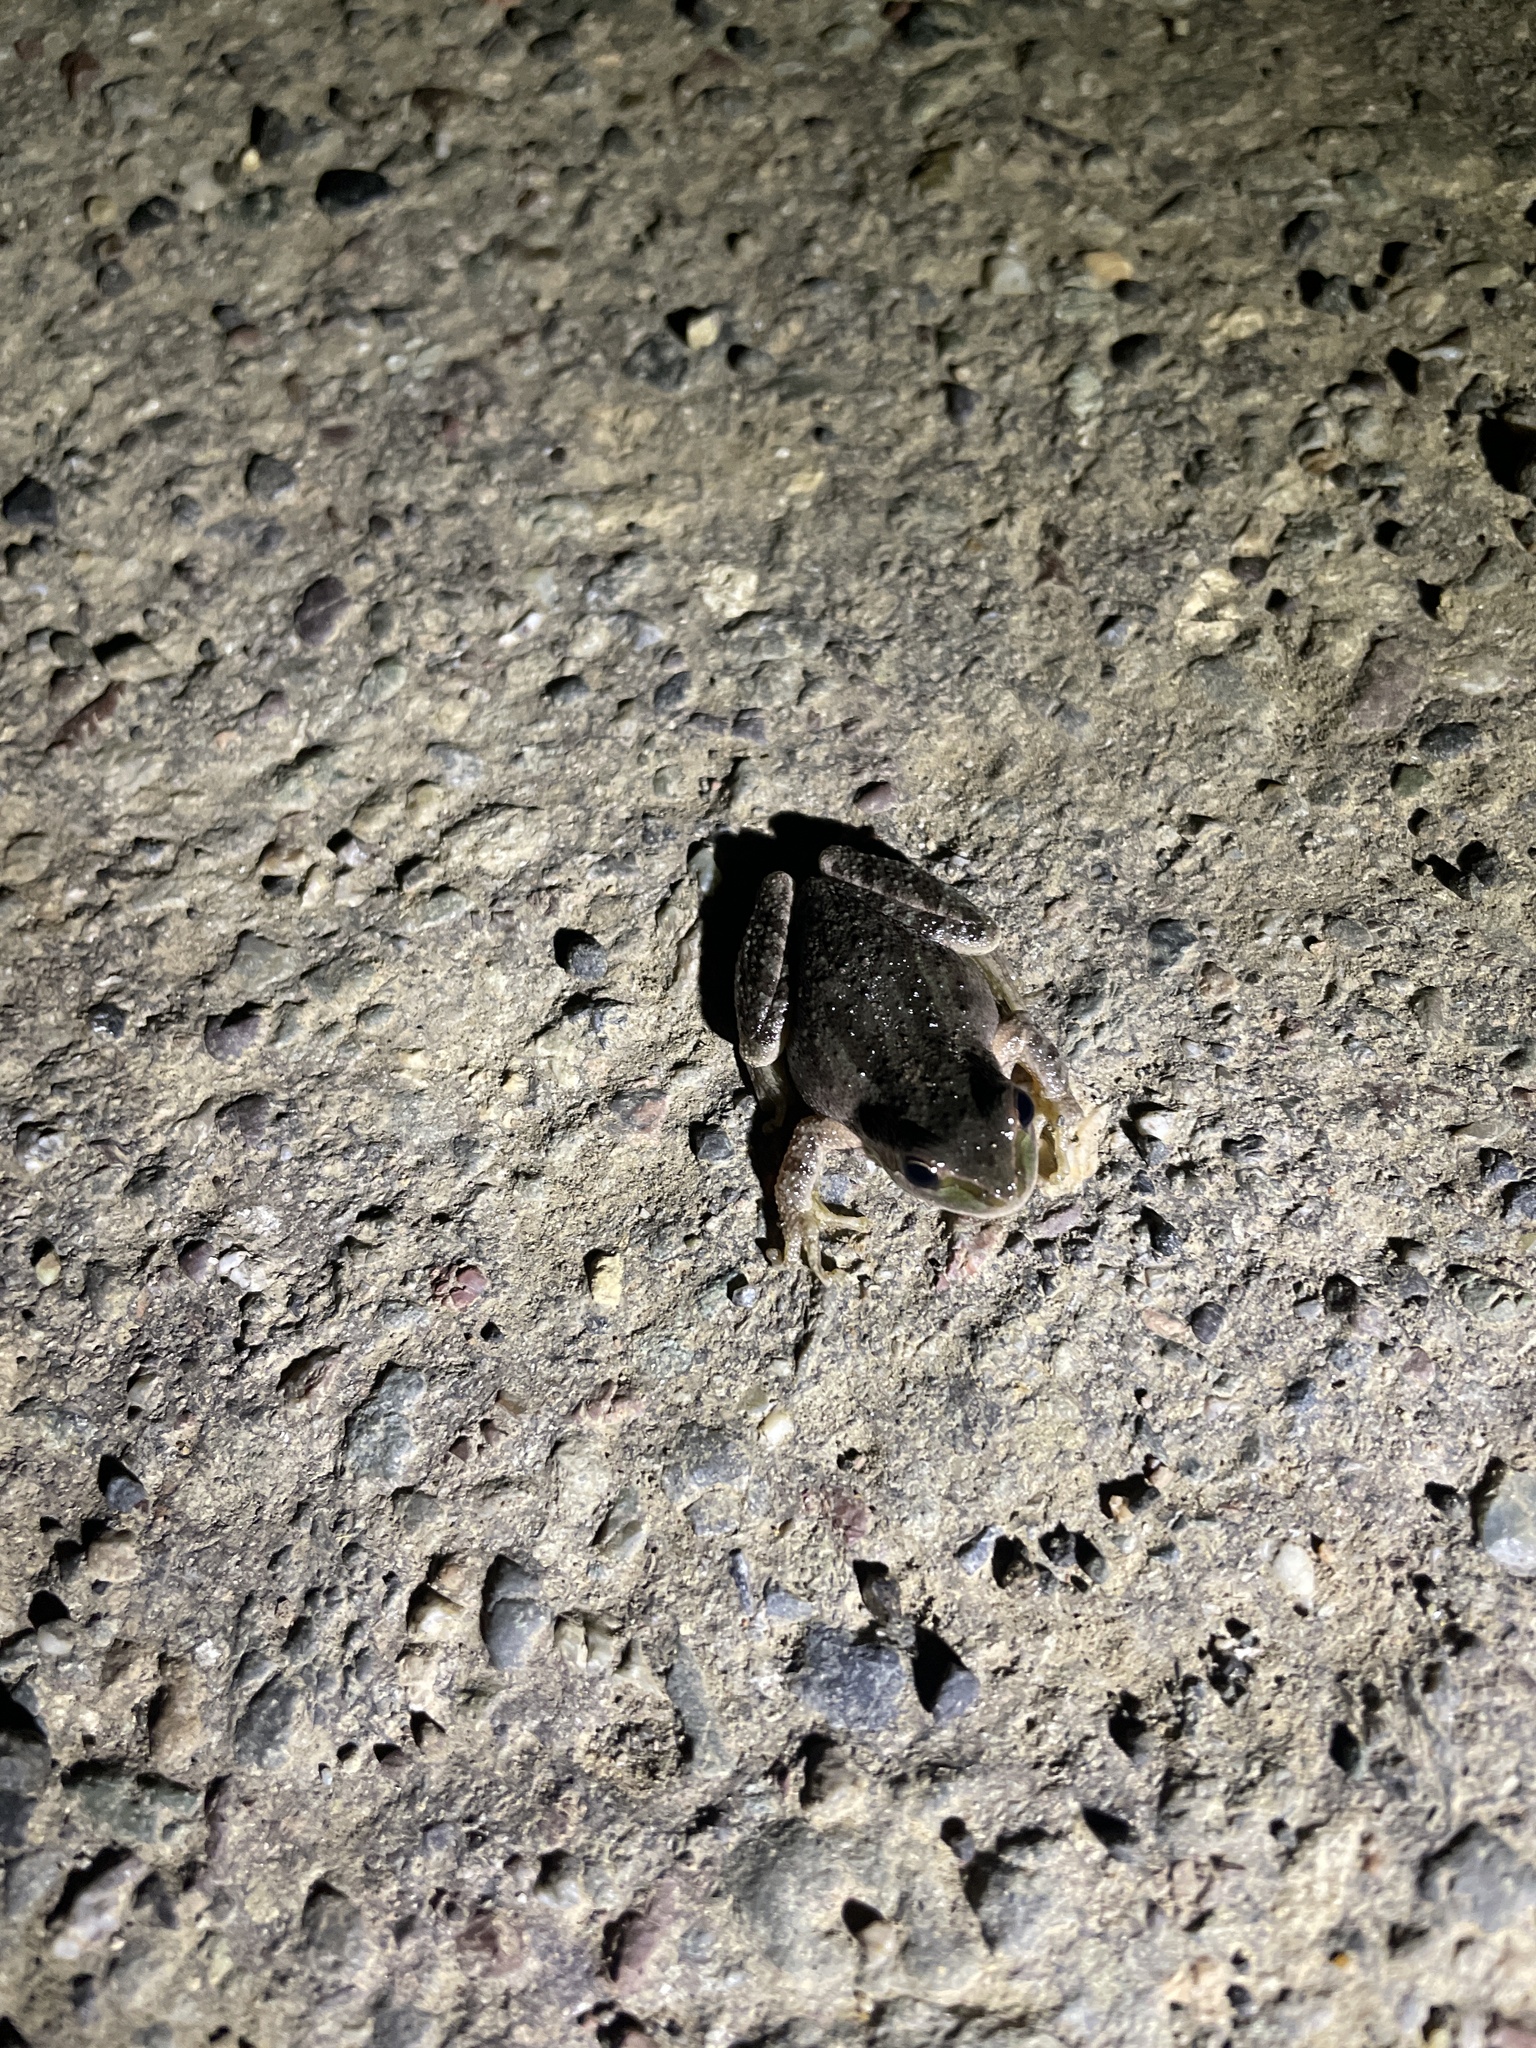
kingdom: Animalia
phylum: Chordata
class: Amphibia
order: Anura
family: Hylidae
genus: Pseudacris
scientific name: Pseudacris regilla
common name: Pacific chorus frog
